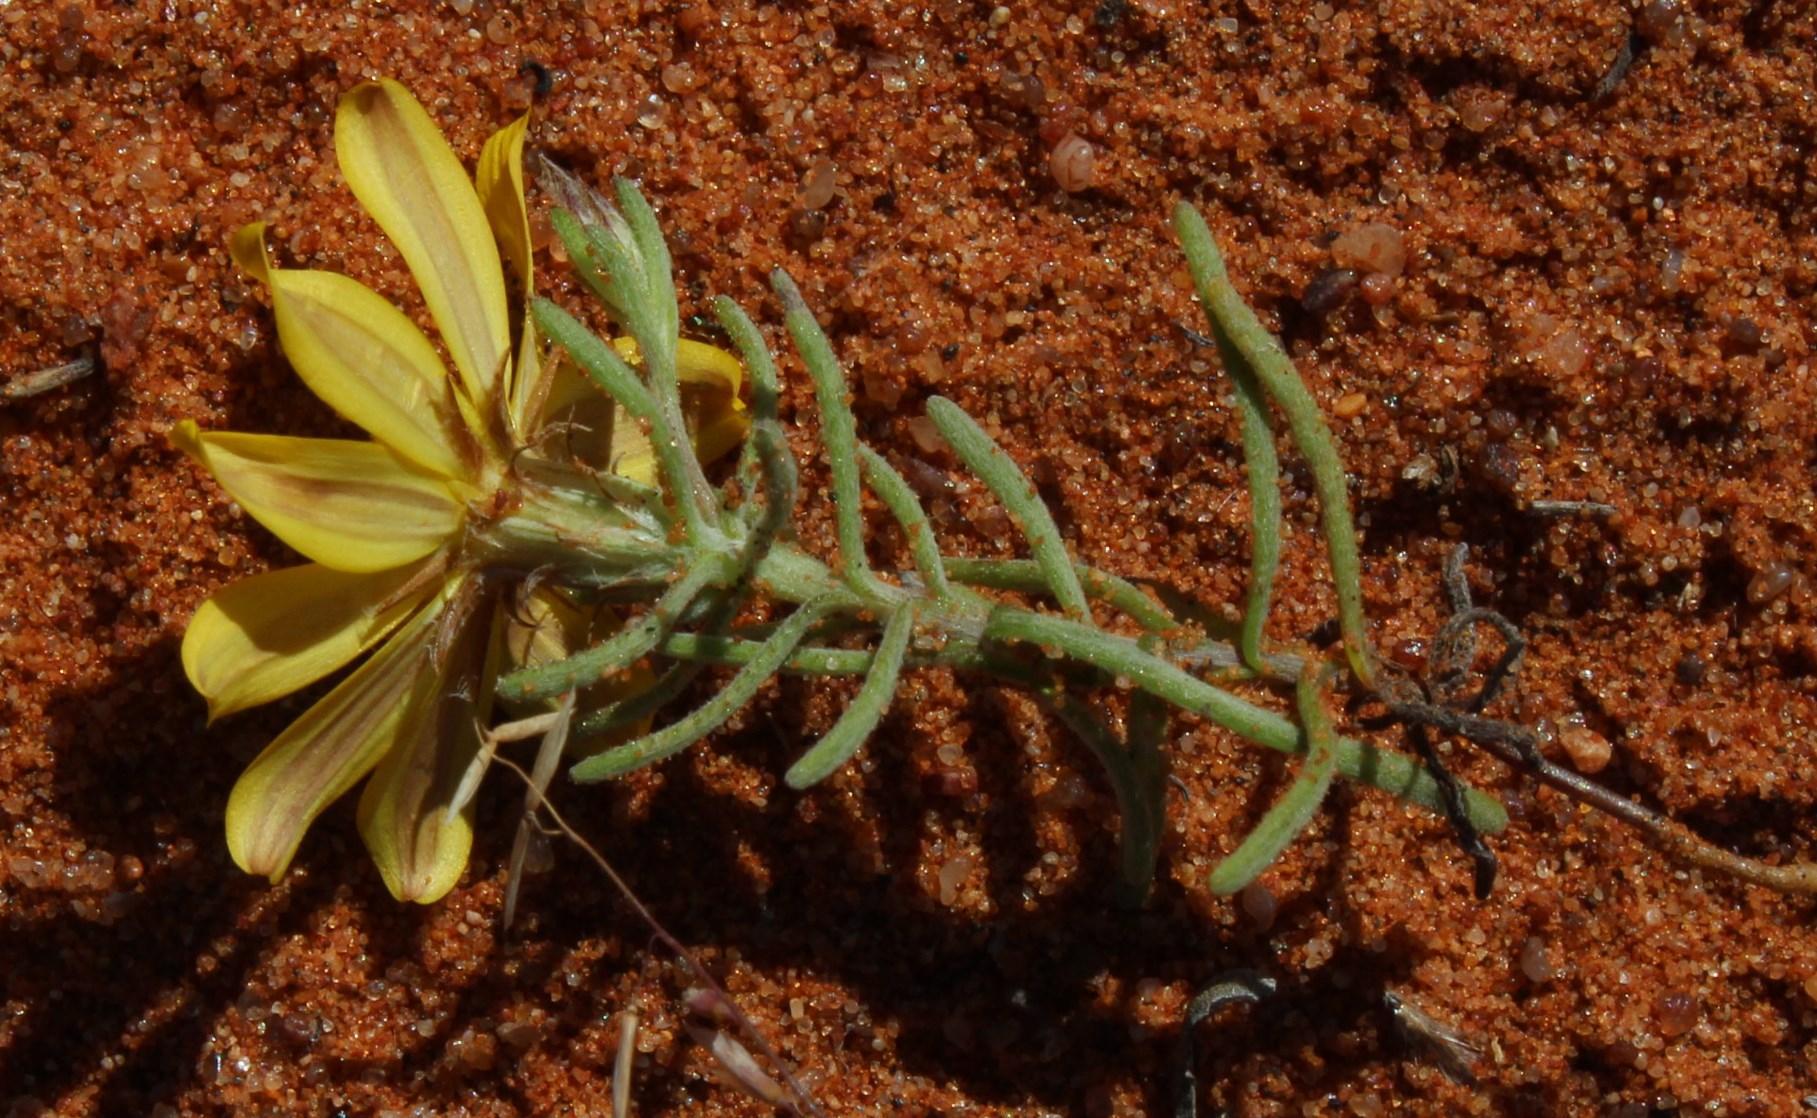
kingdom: Plantae
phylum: Tracheophyta
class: Magnoliopsida
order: Asterales
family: Asteraceae
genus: Nestlera
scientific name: Nestlera biennis
